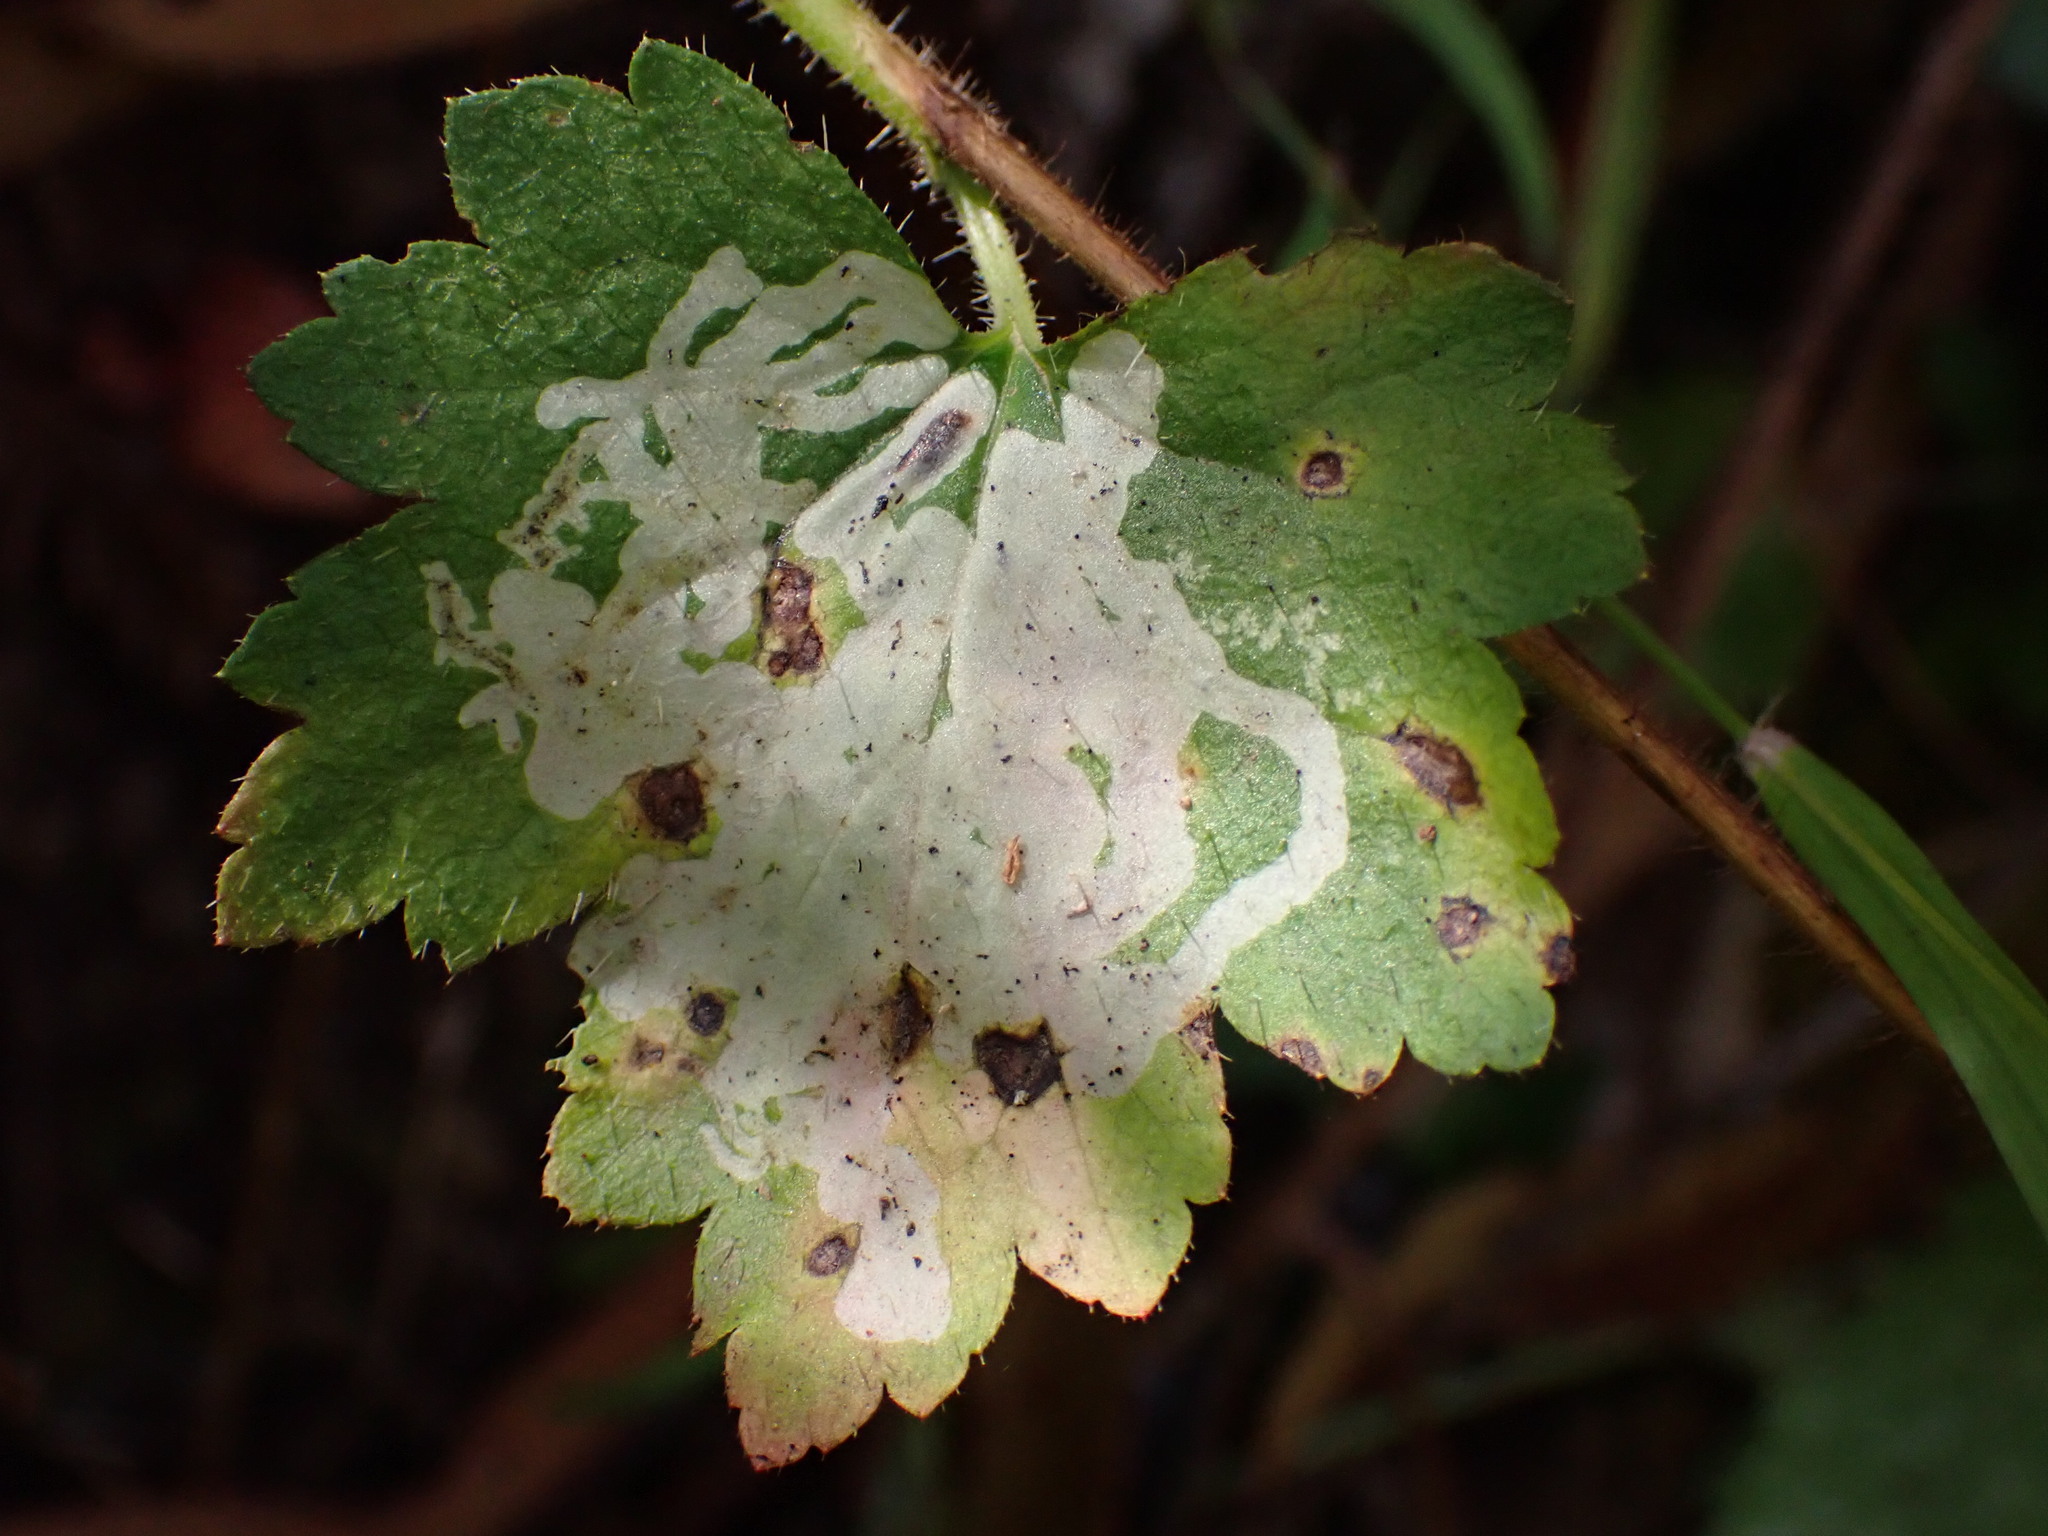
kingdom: Animalia
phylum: Arthropoda
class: Insecta
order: Diptera
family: Agromyzidae
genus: Phytomyza
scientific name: Phytomyza tiarellae
